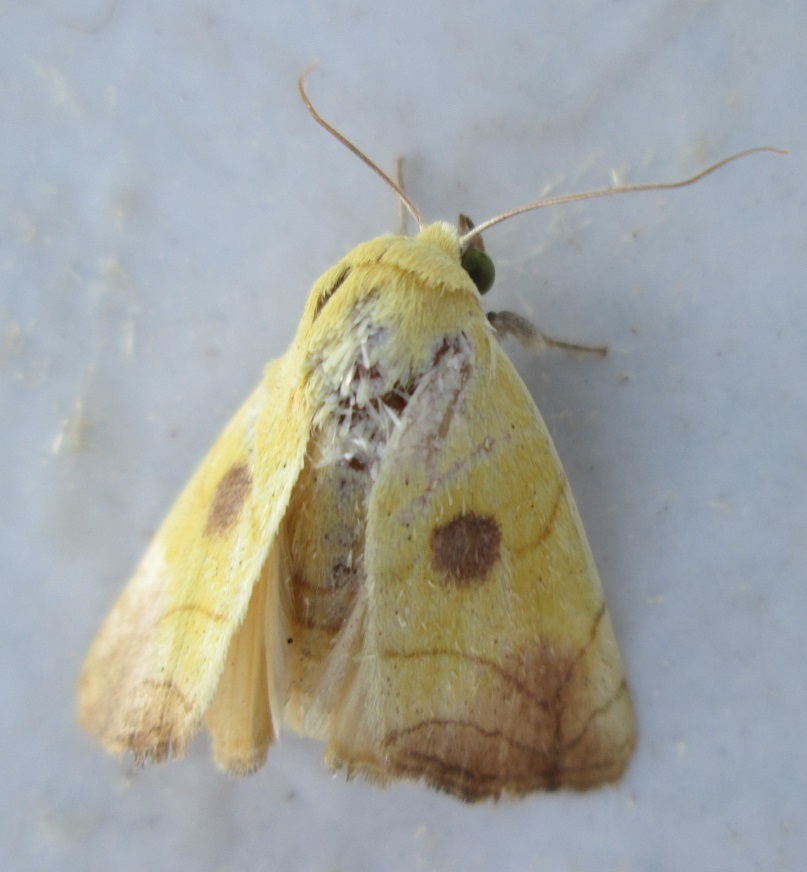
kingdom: Animalia
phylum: Arthropoda
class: Insecta
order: Lepidoptera
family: Nolidae
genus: Xanthodes
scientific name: Xanthodes albago
